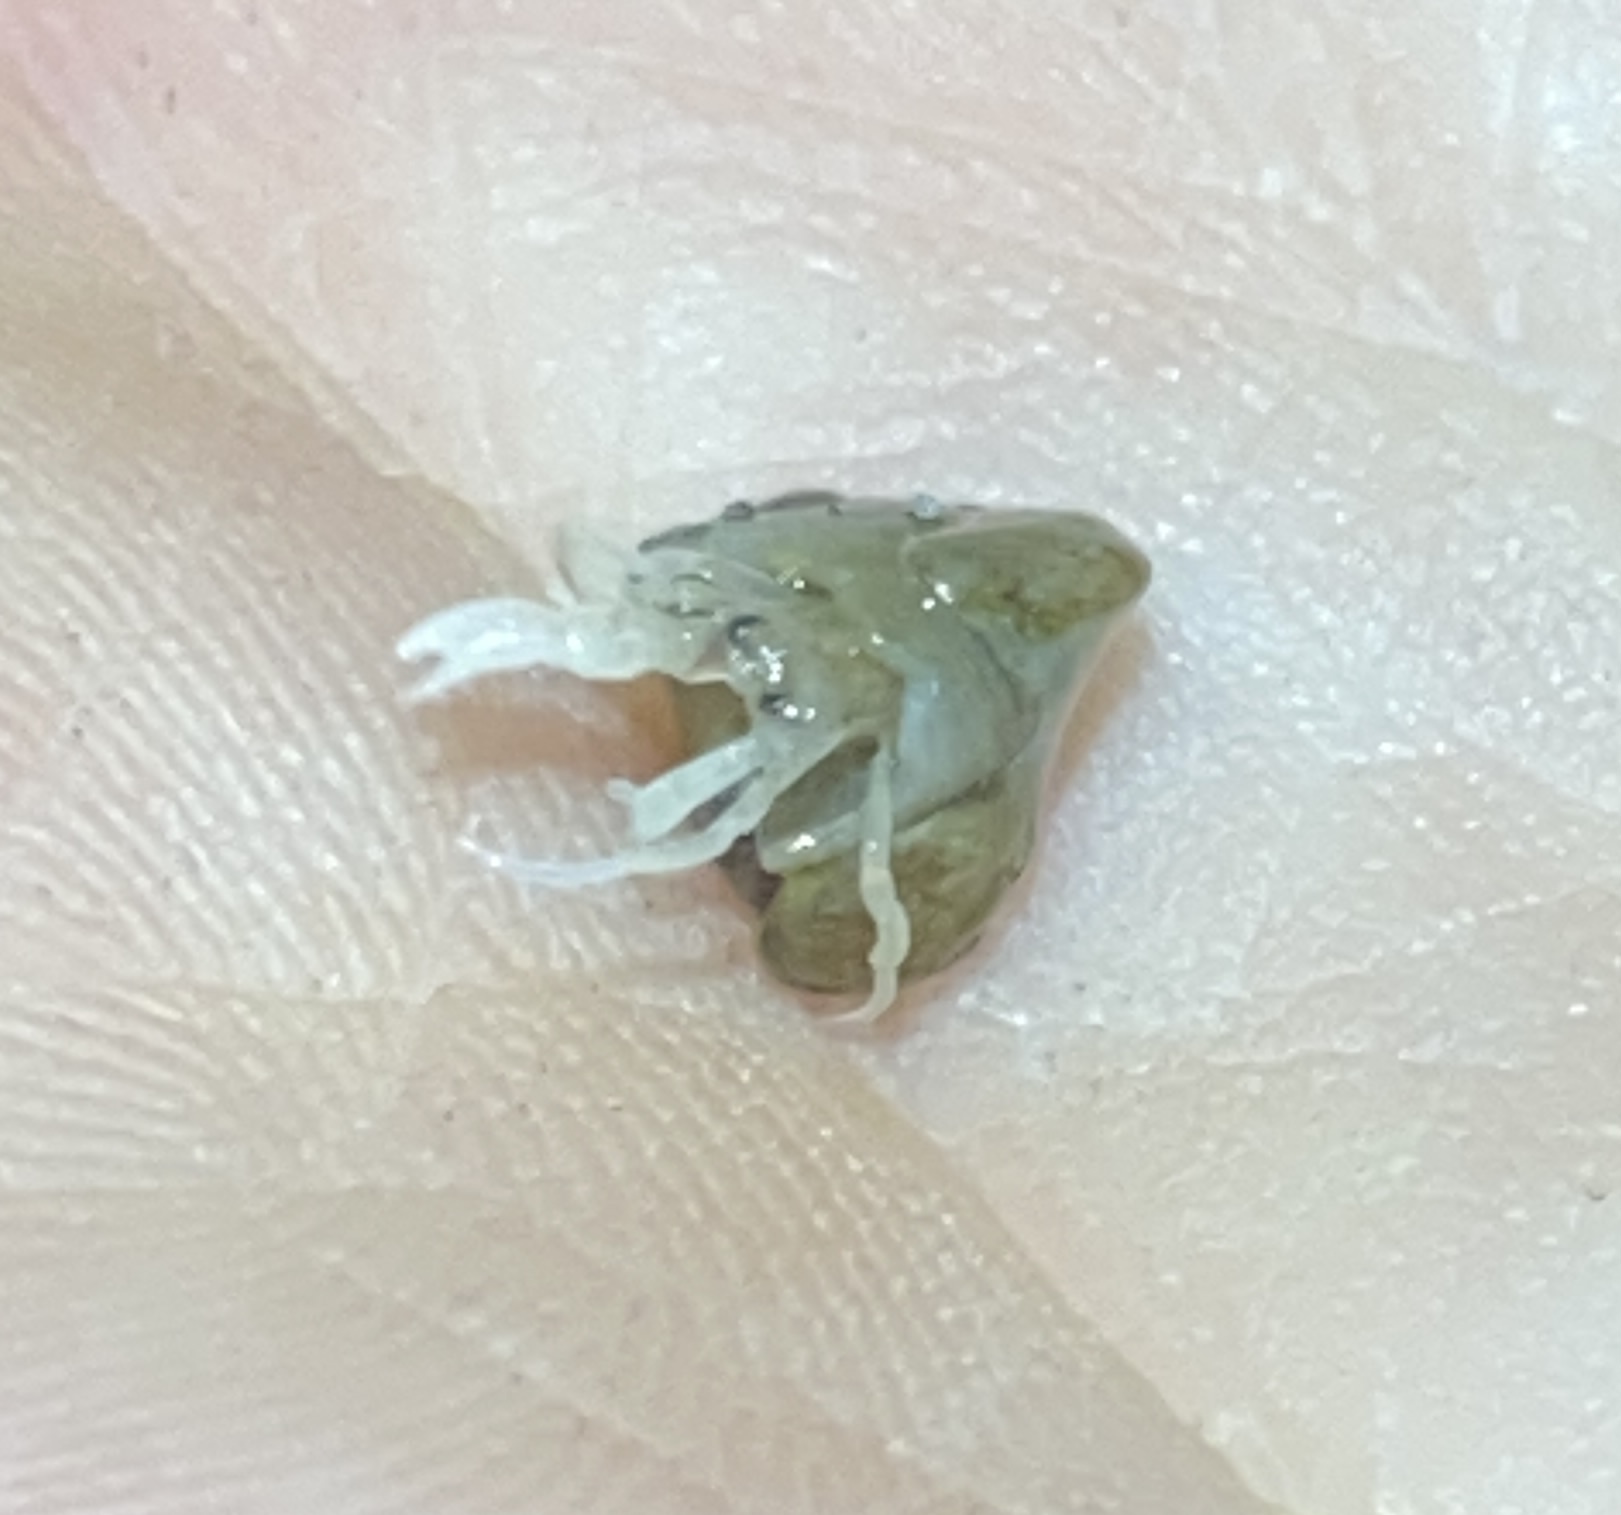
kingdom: Animalia
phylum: Arthropoda
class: Malacostraca
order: Decapoda
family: Paguridae
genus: Pagurus
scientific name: Pagurus longicarpus
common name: Long-armed hermit crab
